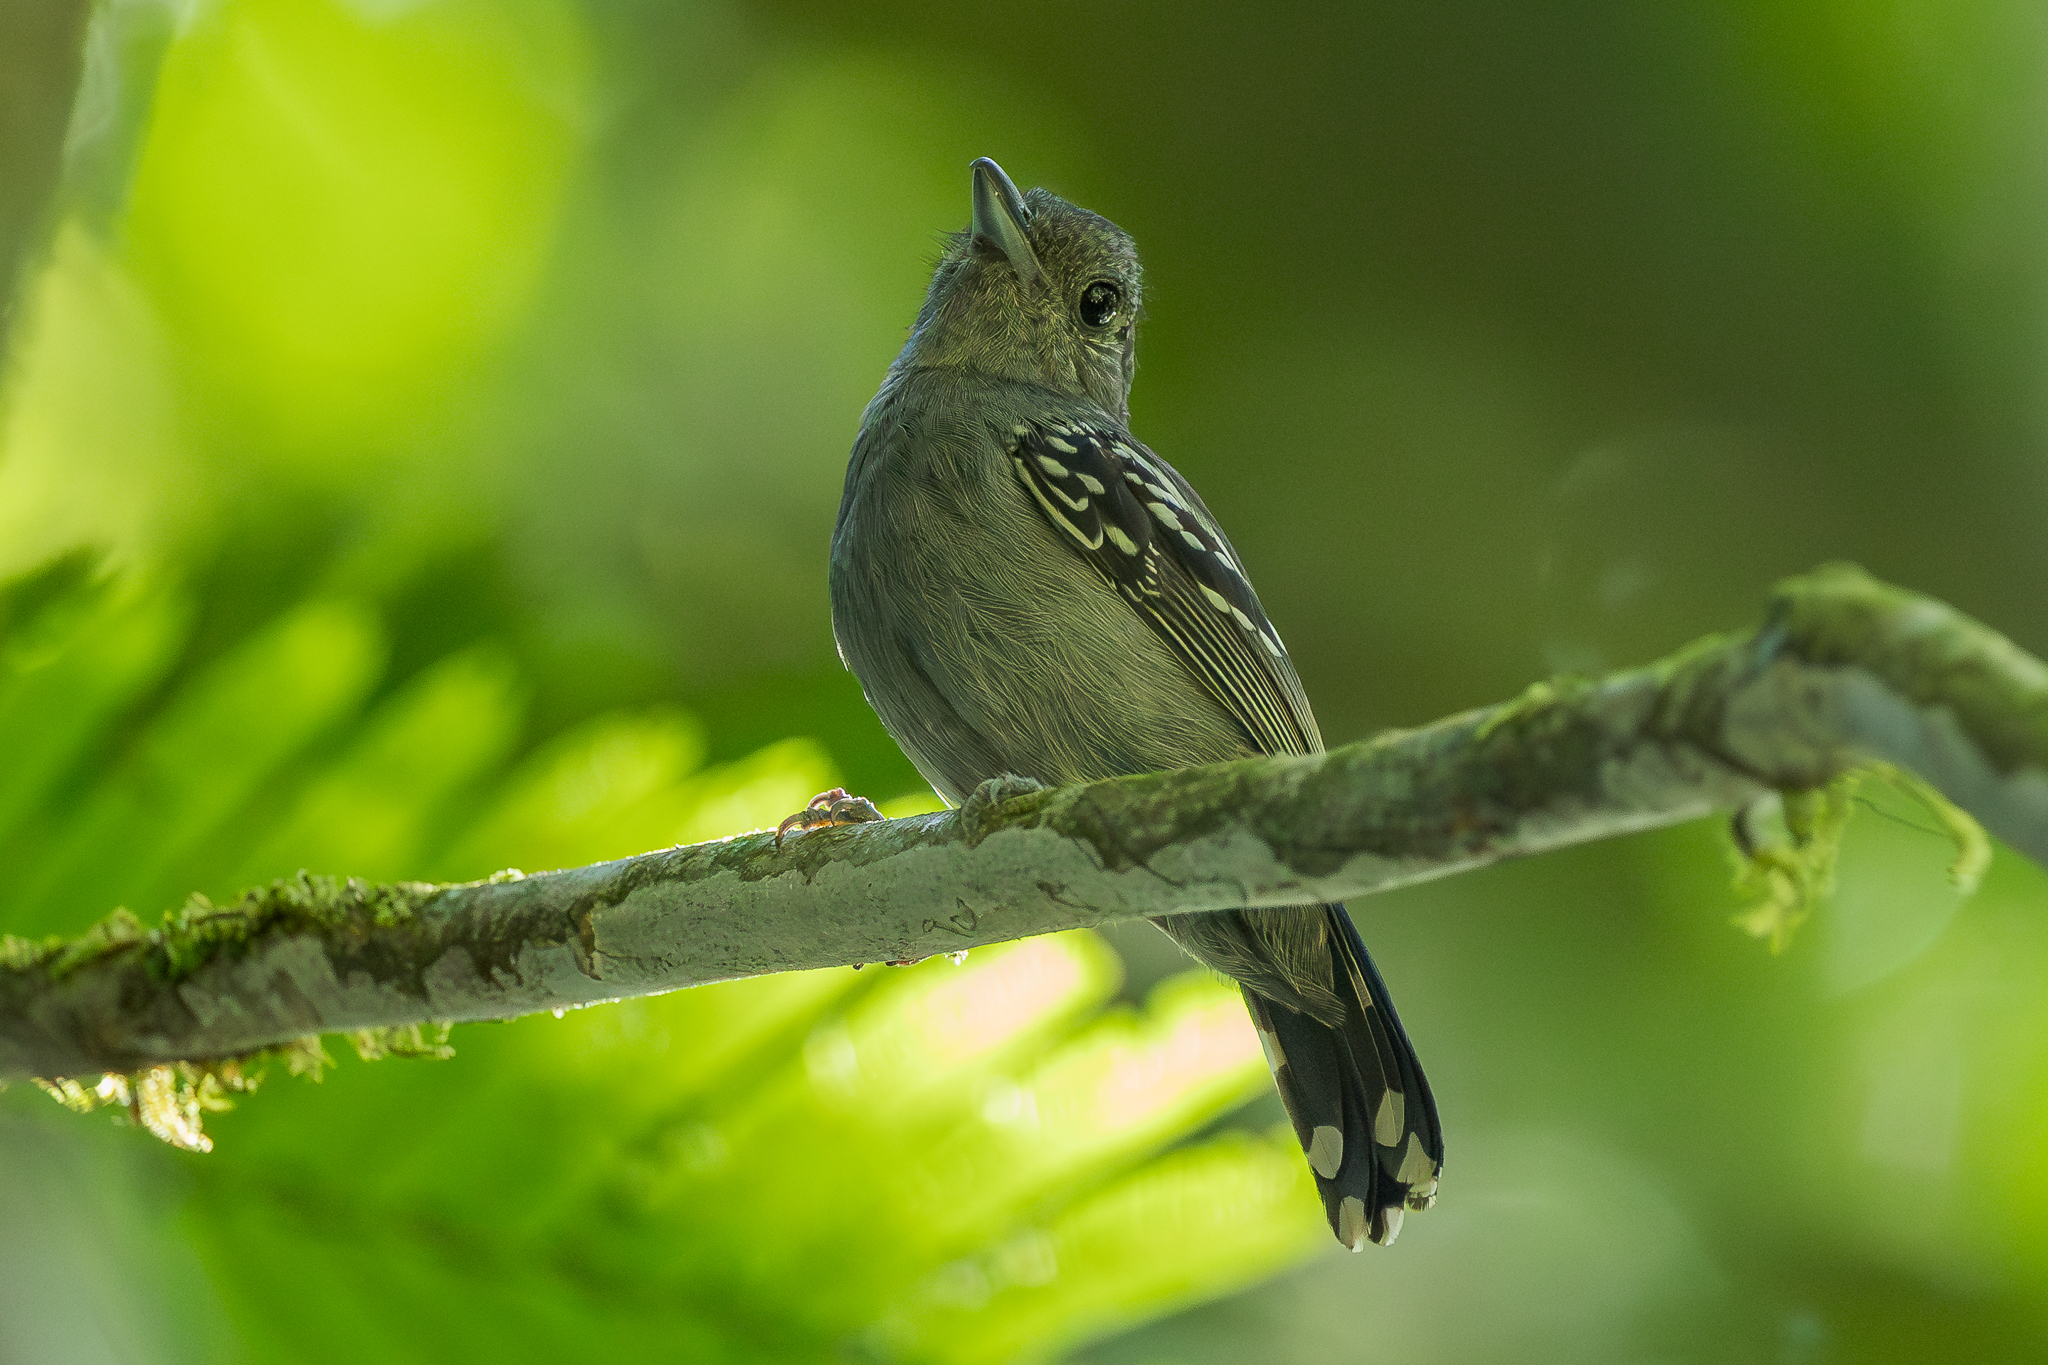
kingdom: Animalia
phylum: Chordata
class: Aves
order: Passeriformes
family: Thamnophilidae
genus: Thamnophilus
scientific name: Thamnophilus atrinucha
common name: Black-crowned antshrike
